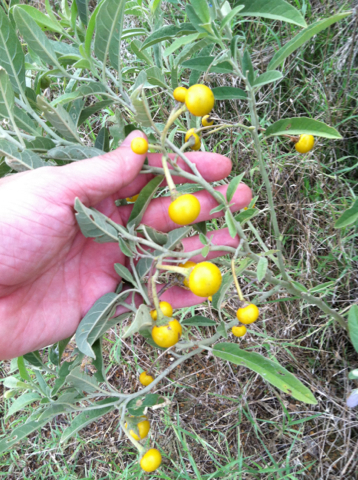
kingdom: Plantae
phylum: Tracheophyta
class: Magnoliopsida
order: Solanales
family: Solanaceae
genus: Solanum
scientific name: Solanum elaeagnifolium
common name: Silverleaf nightshade
